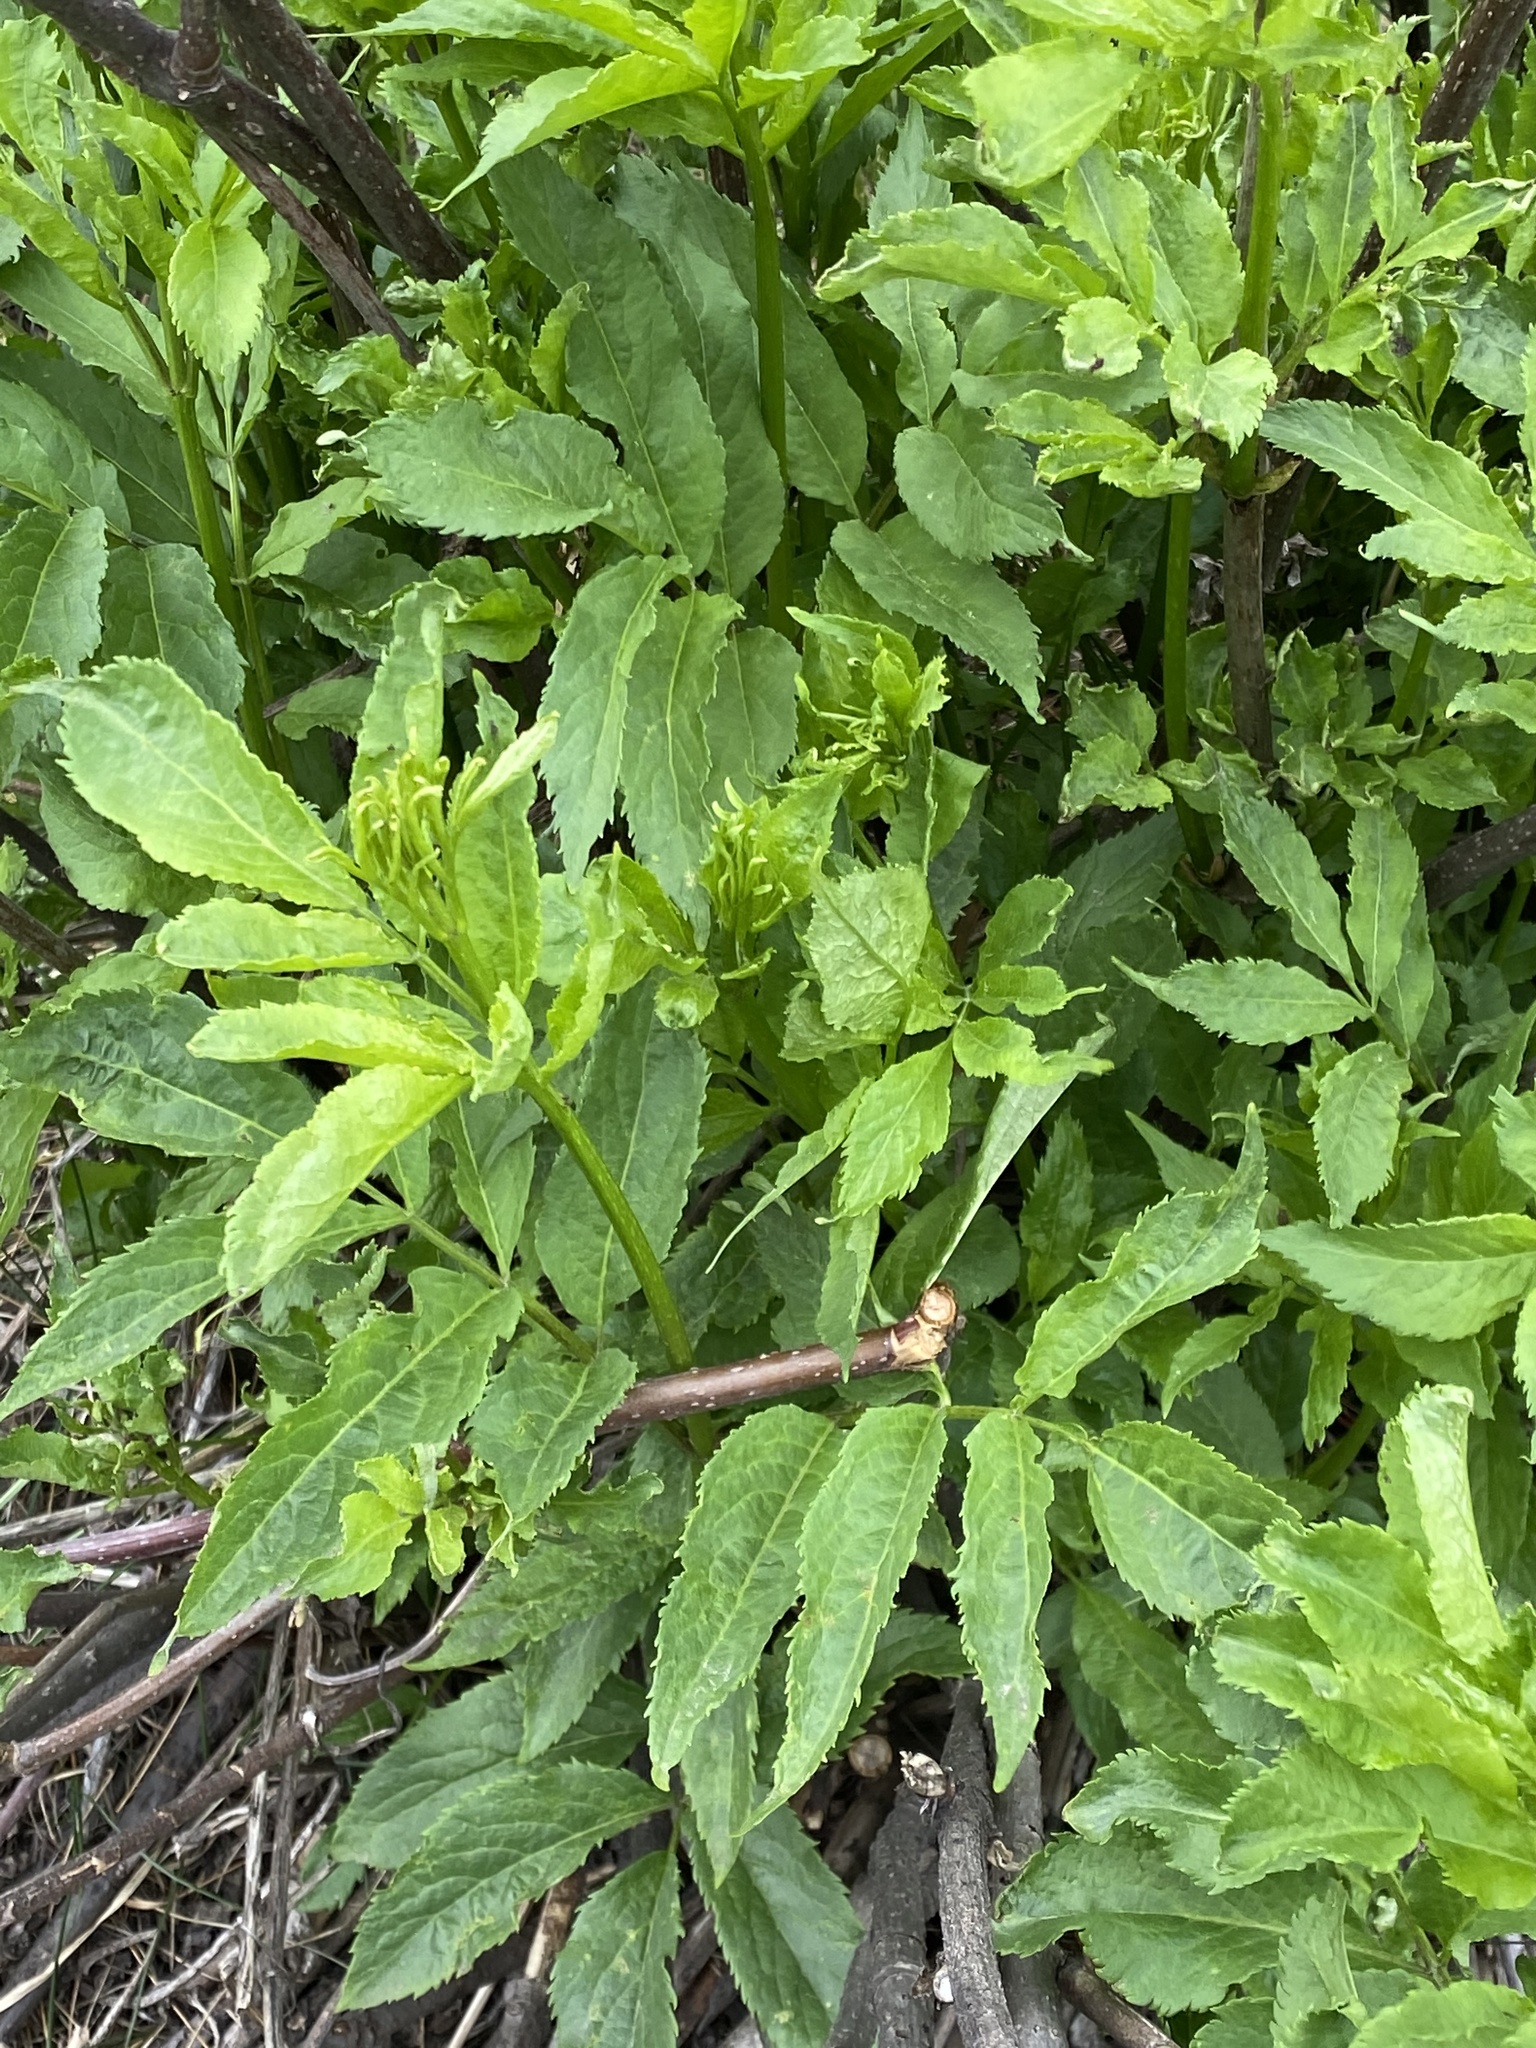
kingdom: Plantae
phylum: Tracheophyta
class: Magnoliopsida
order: Dipsacales
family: Viburnaceae
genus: Sambucus
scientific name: Sambucus racemosa
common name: Red-berried elder
